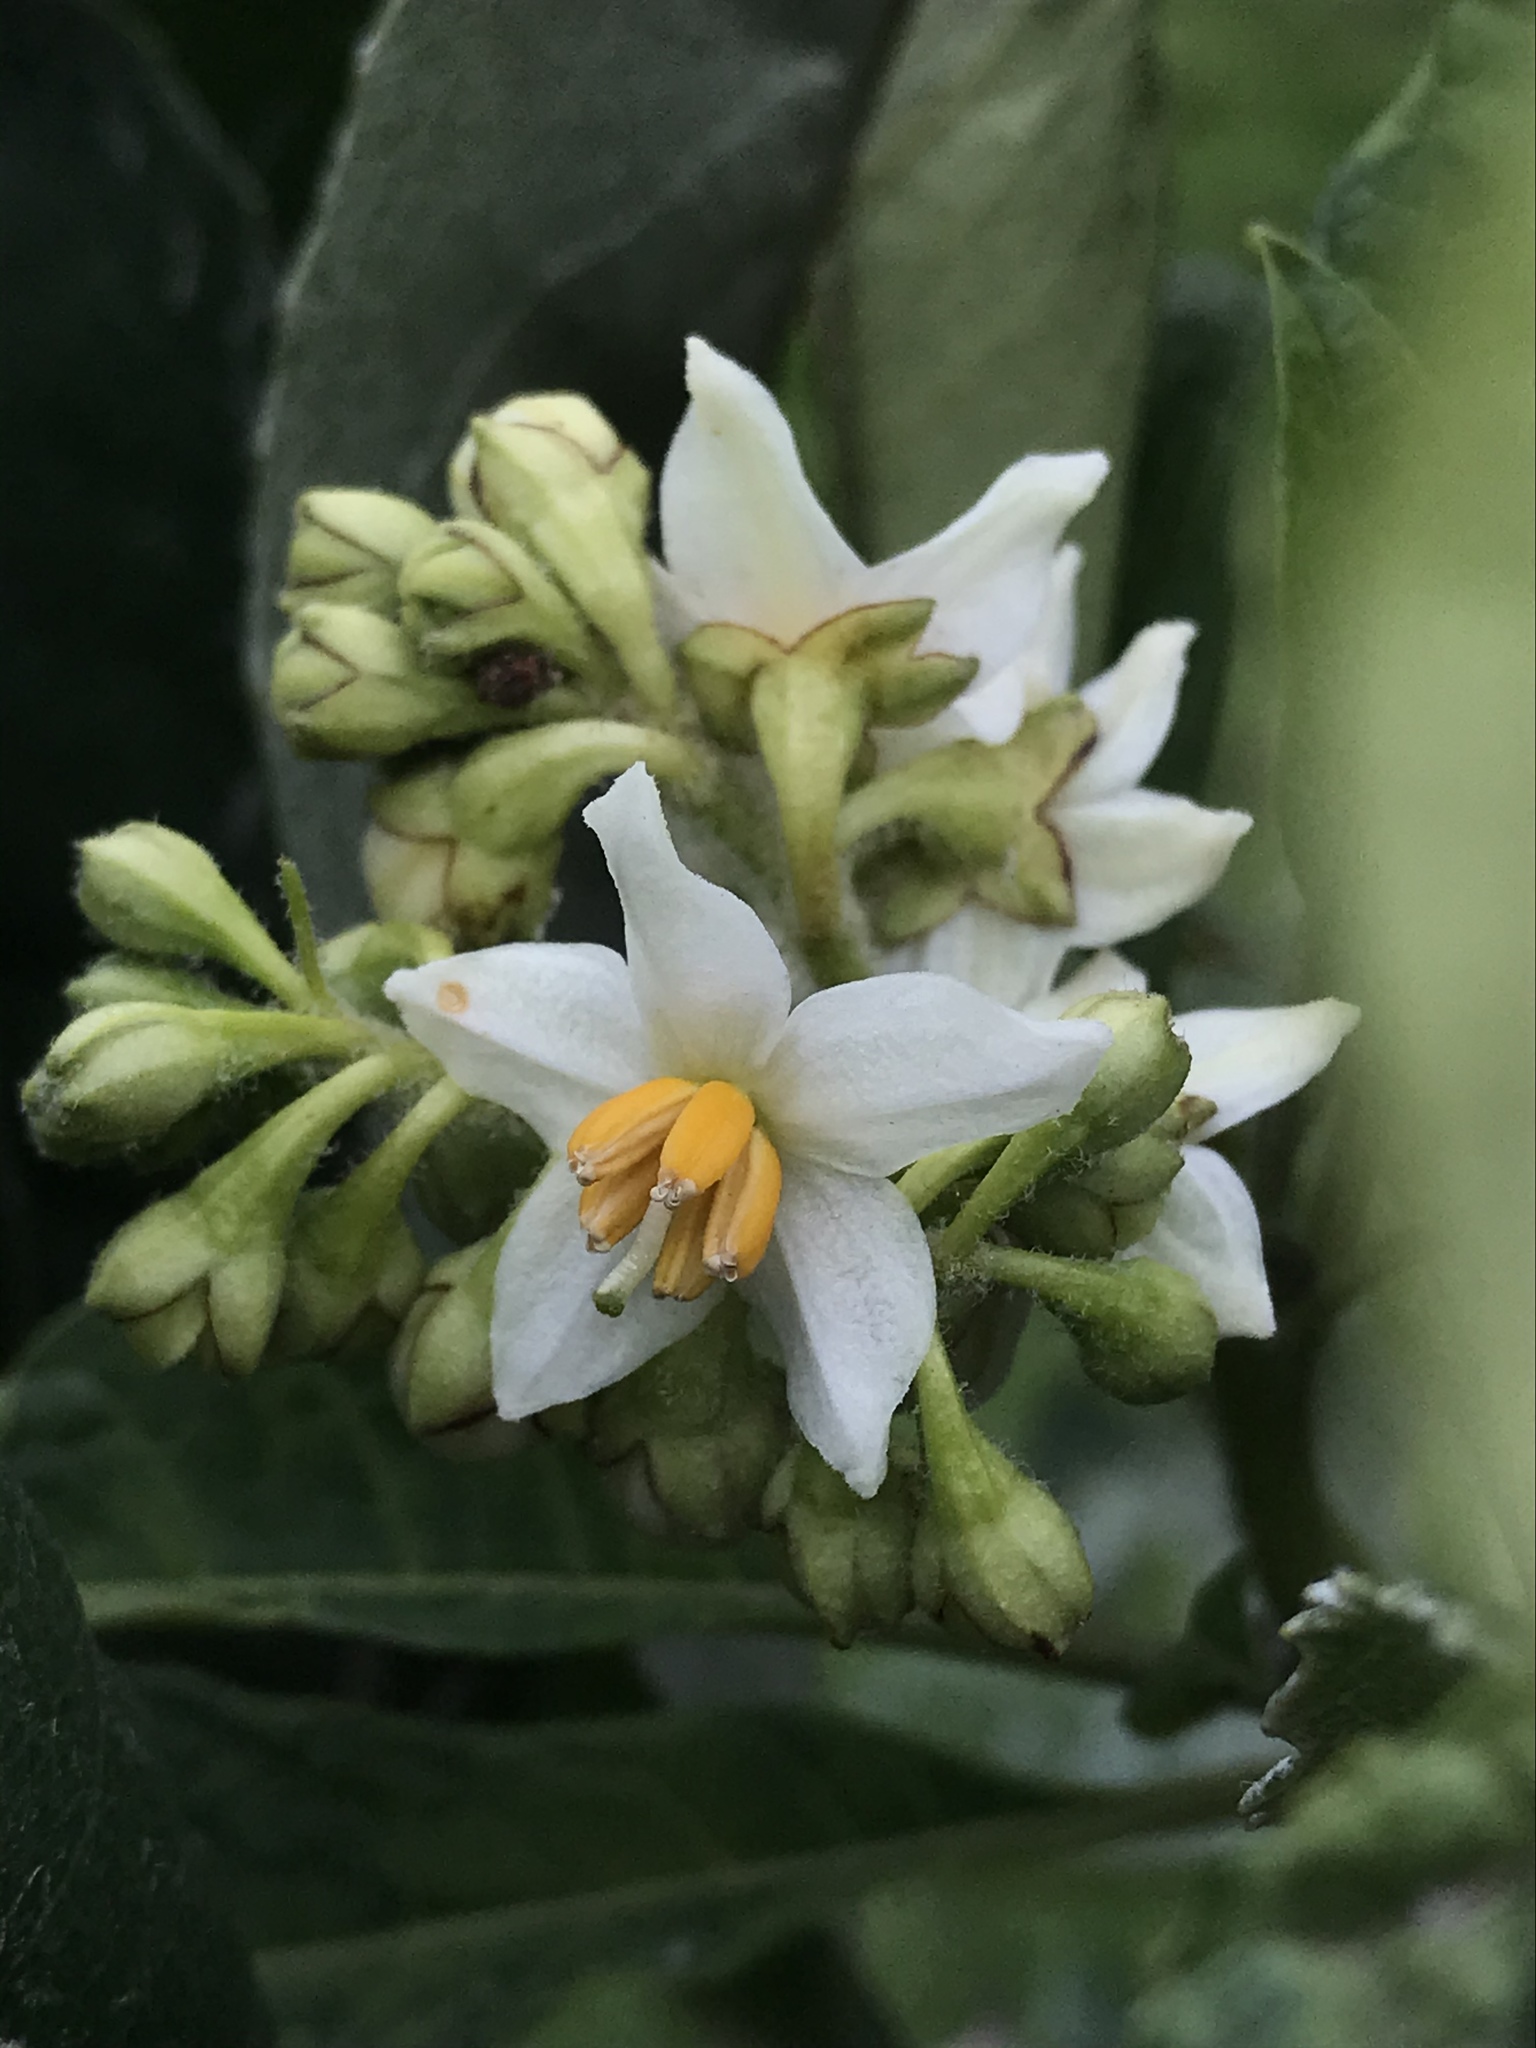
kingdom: Plantae
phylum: Tracheophyta
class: Magnoliopsida
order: Solanales
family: Solanaceae
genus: Solanum
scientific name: Solanum oblongifolium
